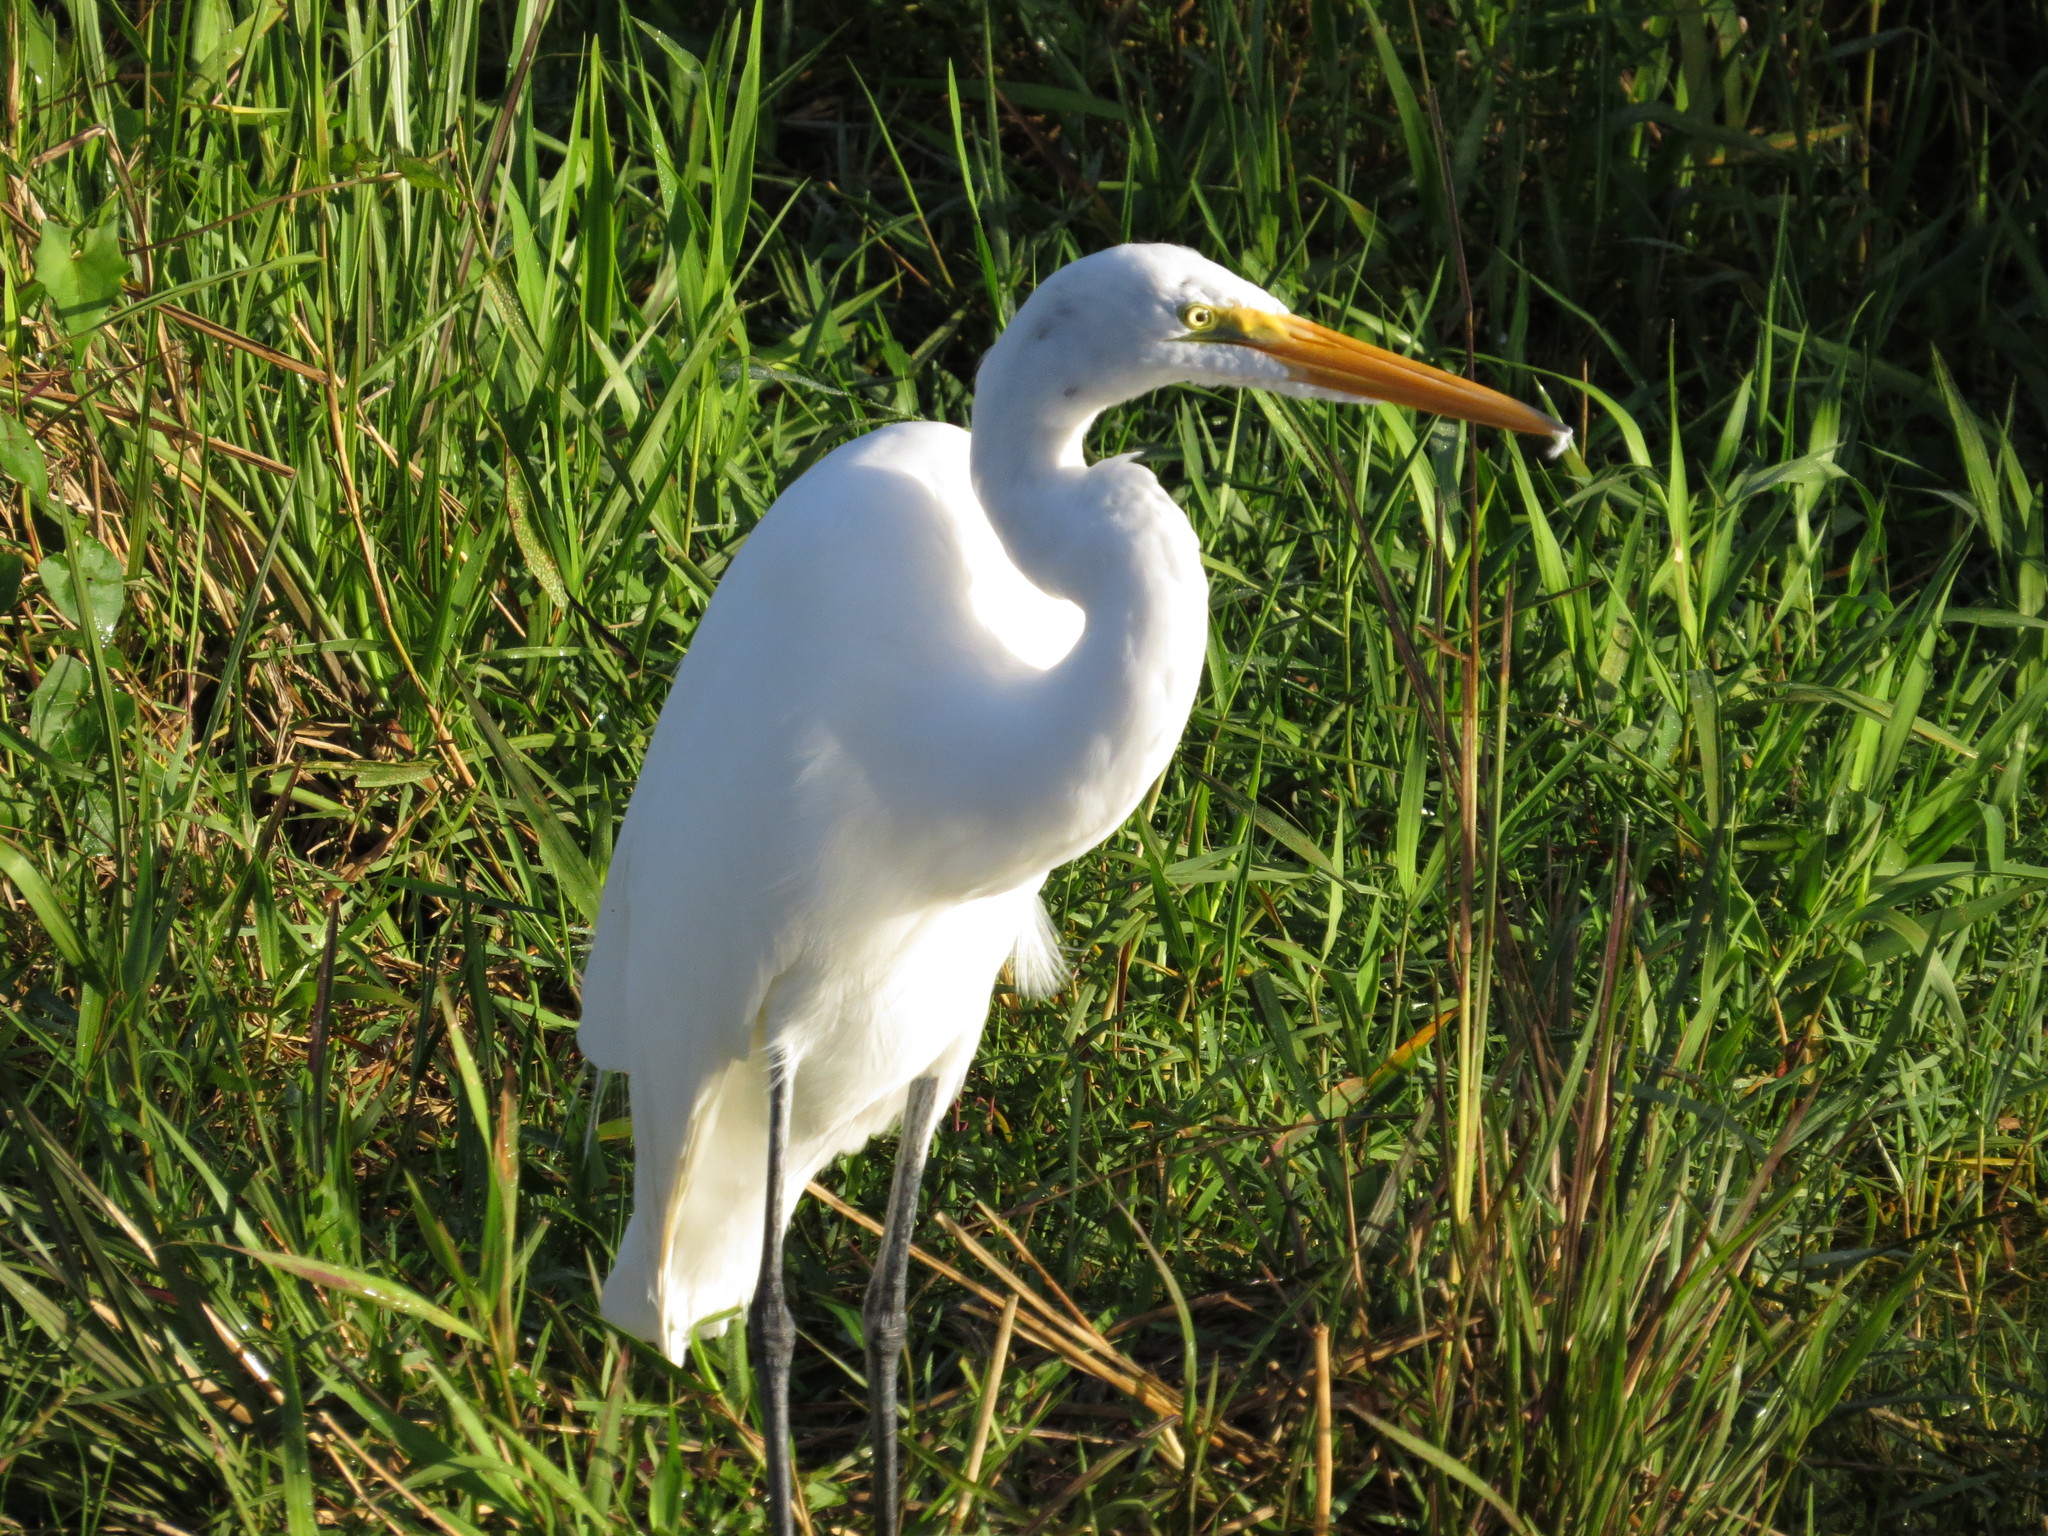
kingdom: Animalia
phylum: Chordata
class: Aves
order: Pelecaniformes
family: Ardeidae
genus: Ardea
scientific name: Ardea alba
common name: Great egret
